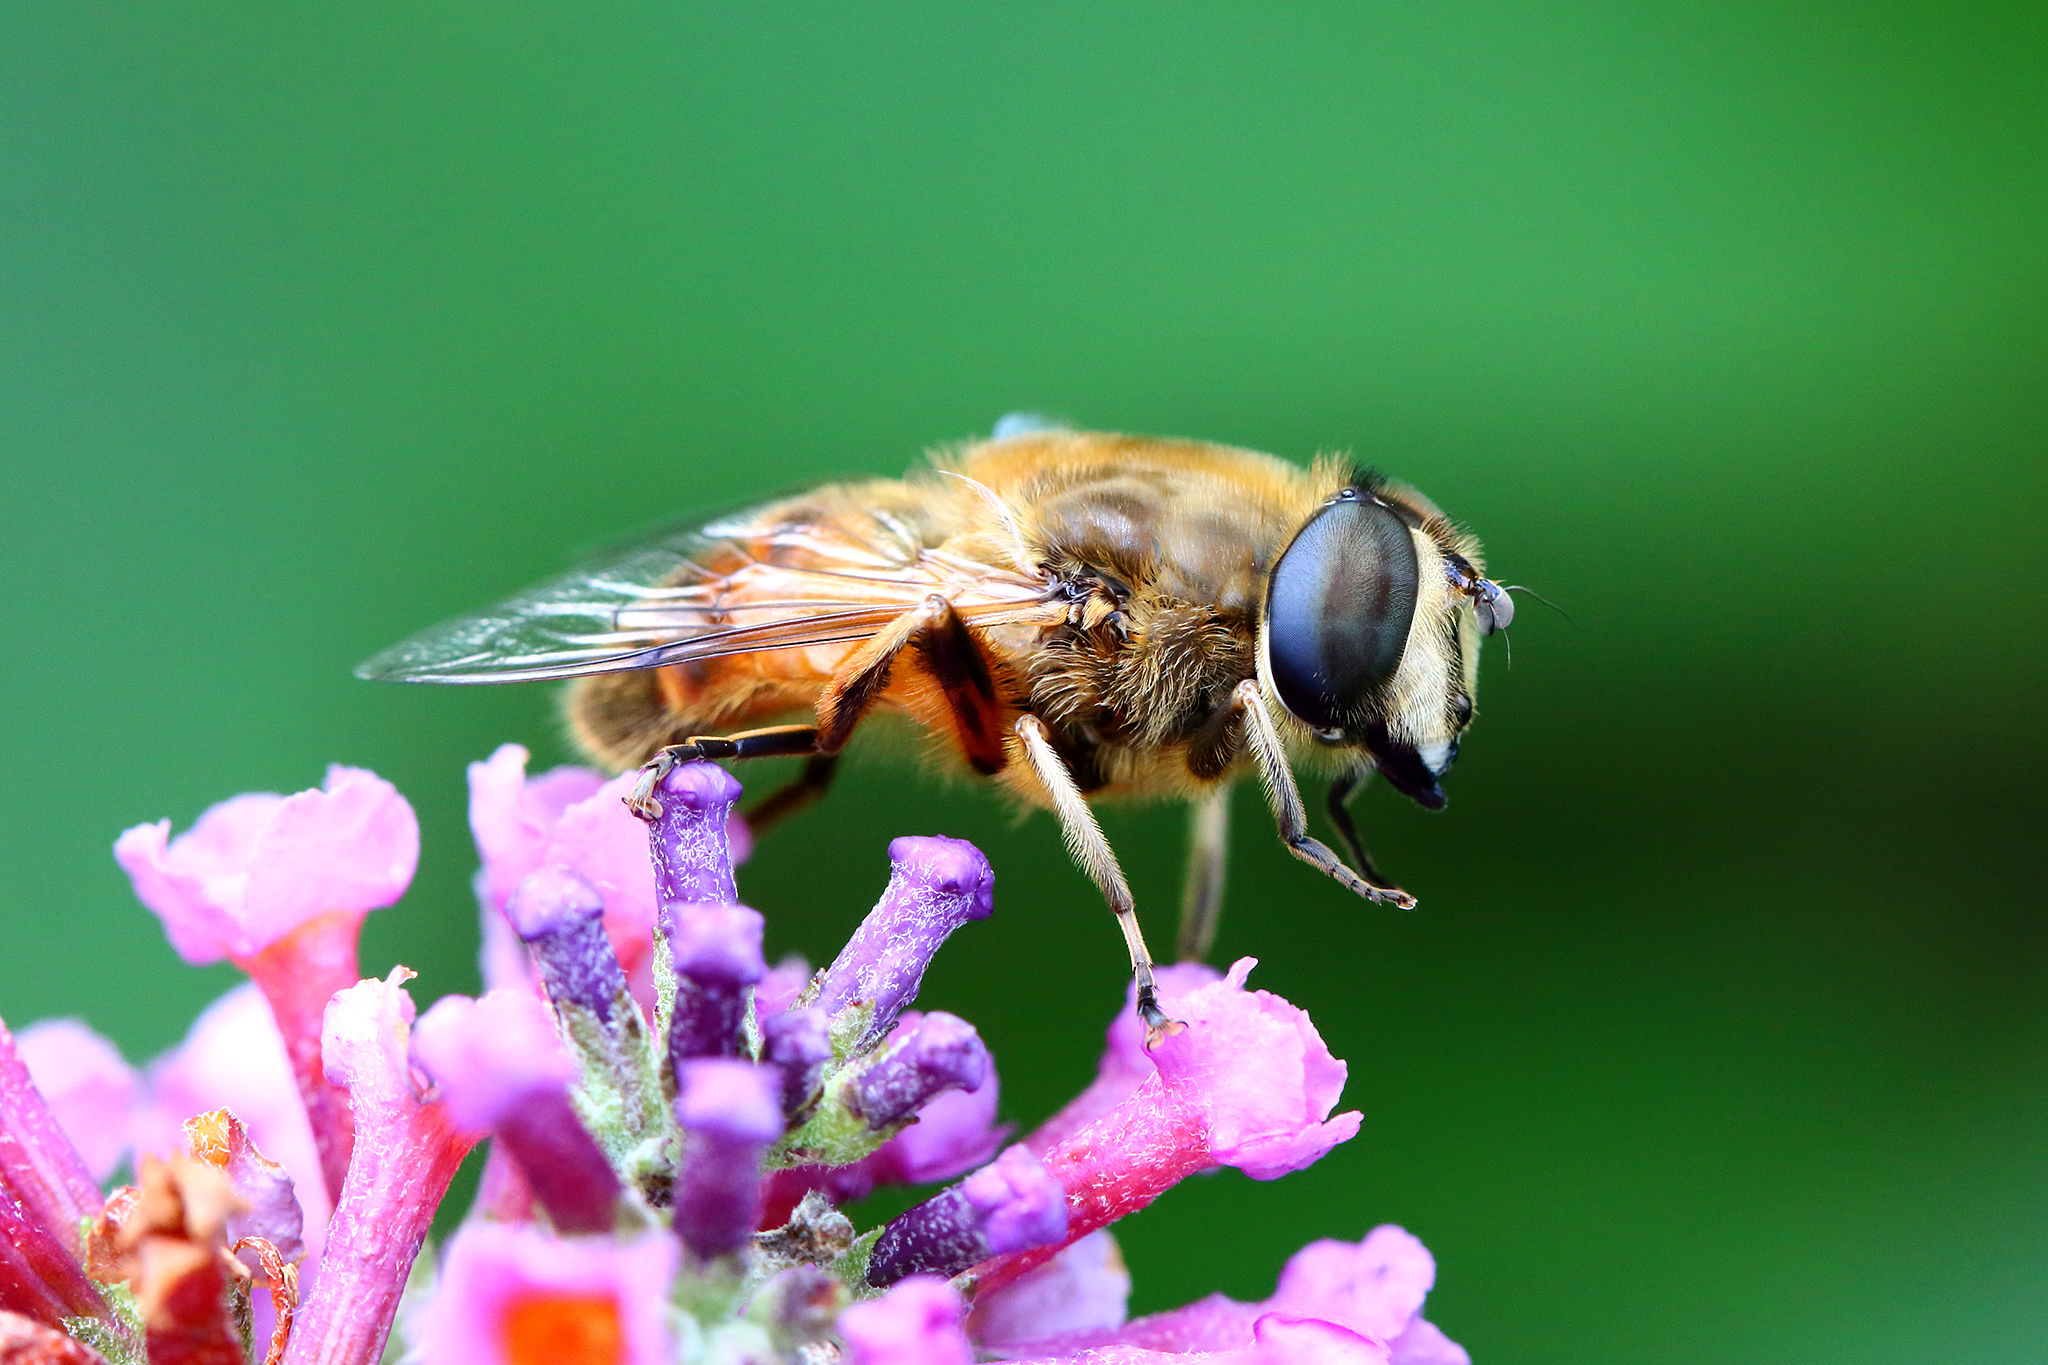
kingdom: Animalia
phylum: Arthropoda
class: Insecta
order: Diptera
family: Syrphidae
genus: Eristalis
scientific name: Eristalis tenax
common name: Drone fly
